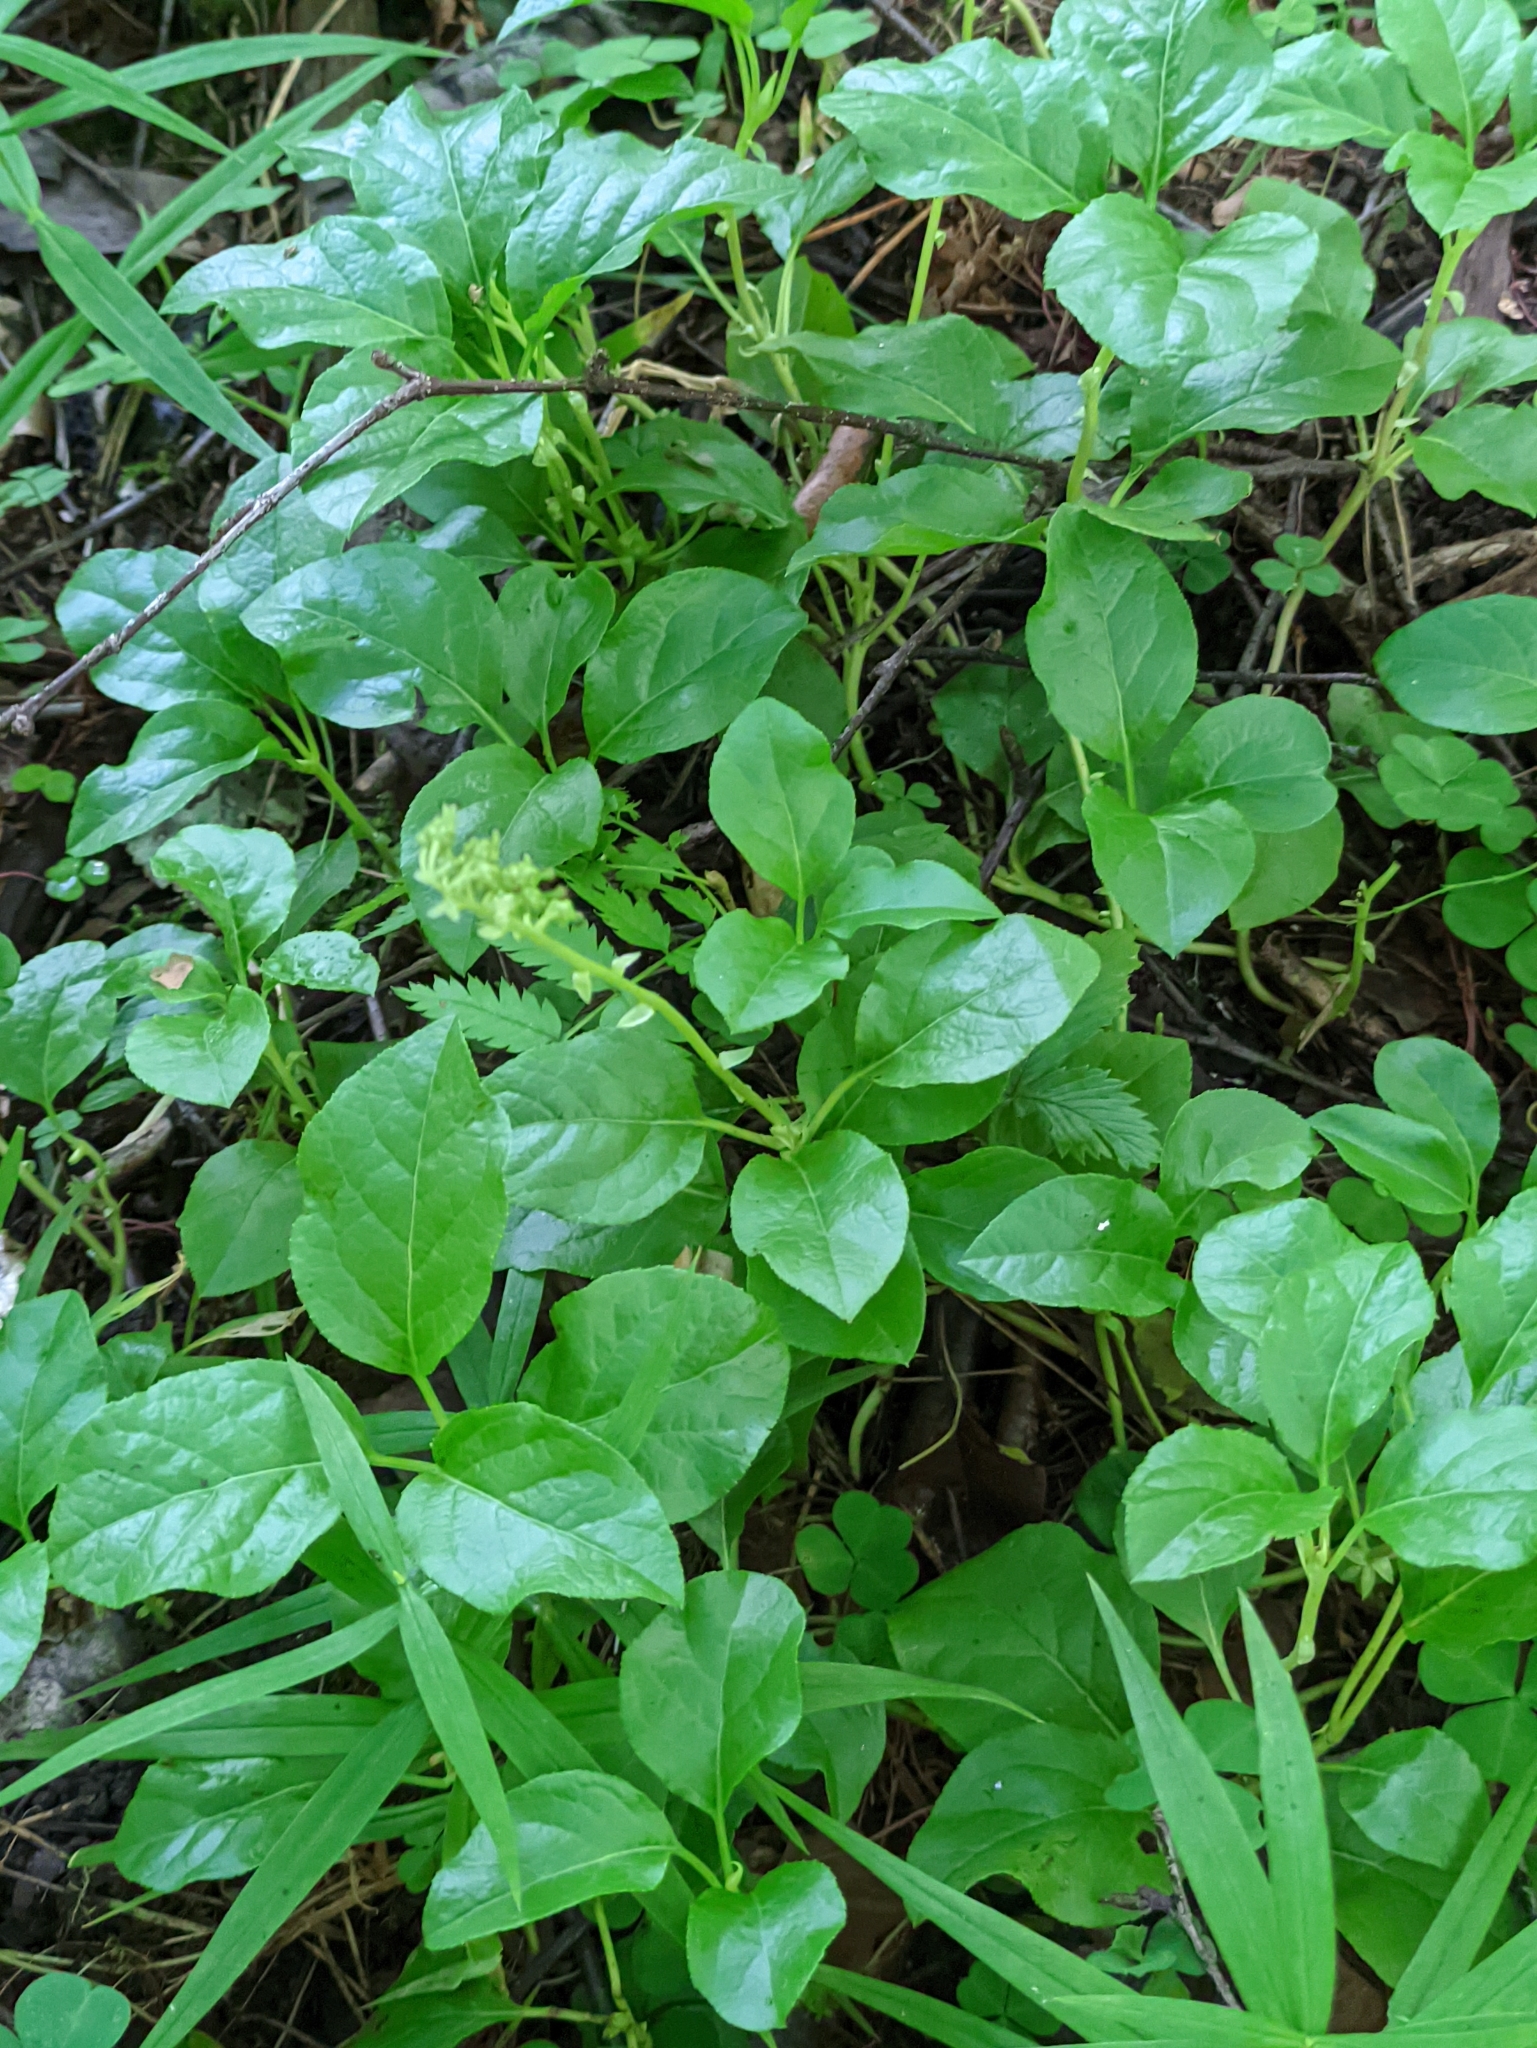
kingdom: Plantae
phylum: Tracheophyta
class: Magnoliopsida
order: Ericales
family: Ericaceae
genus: Orthilia
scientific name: Orthilia secunda
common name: One-sided orthilia
